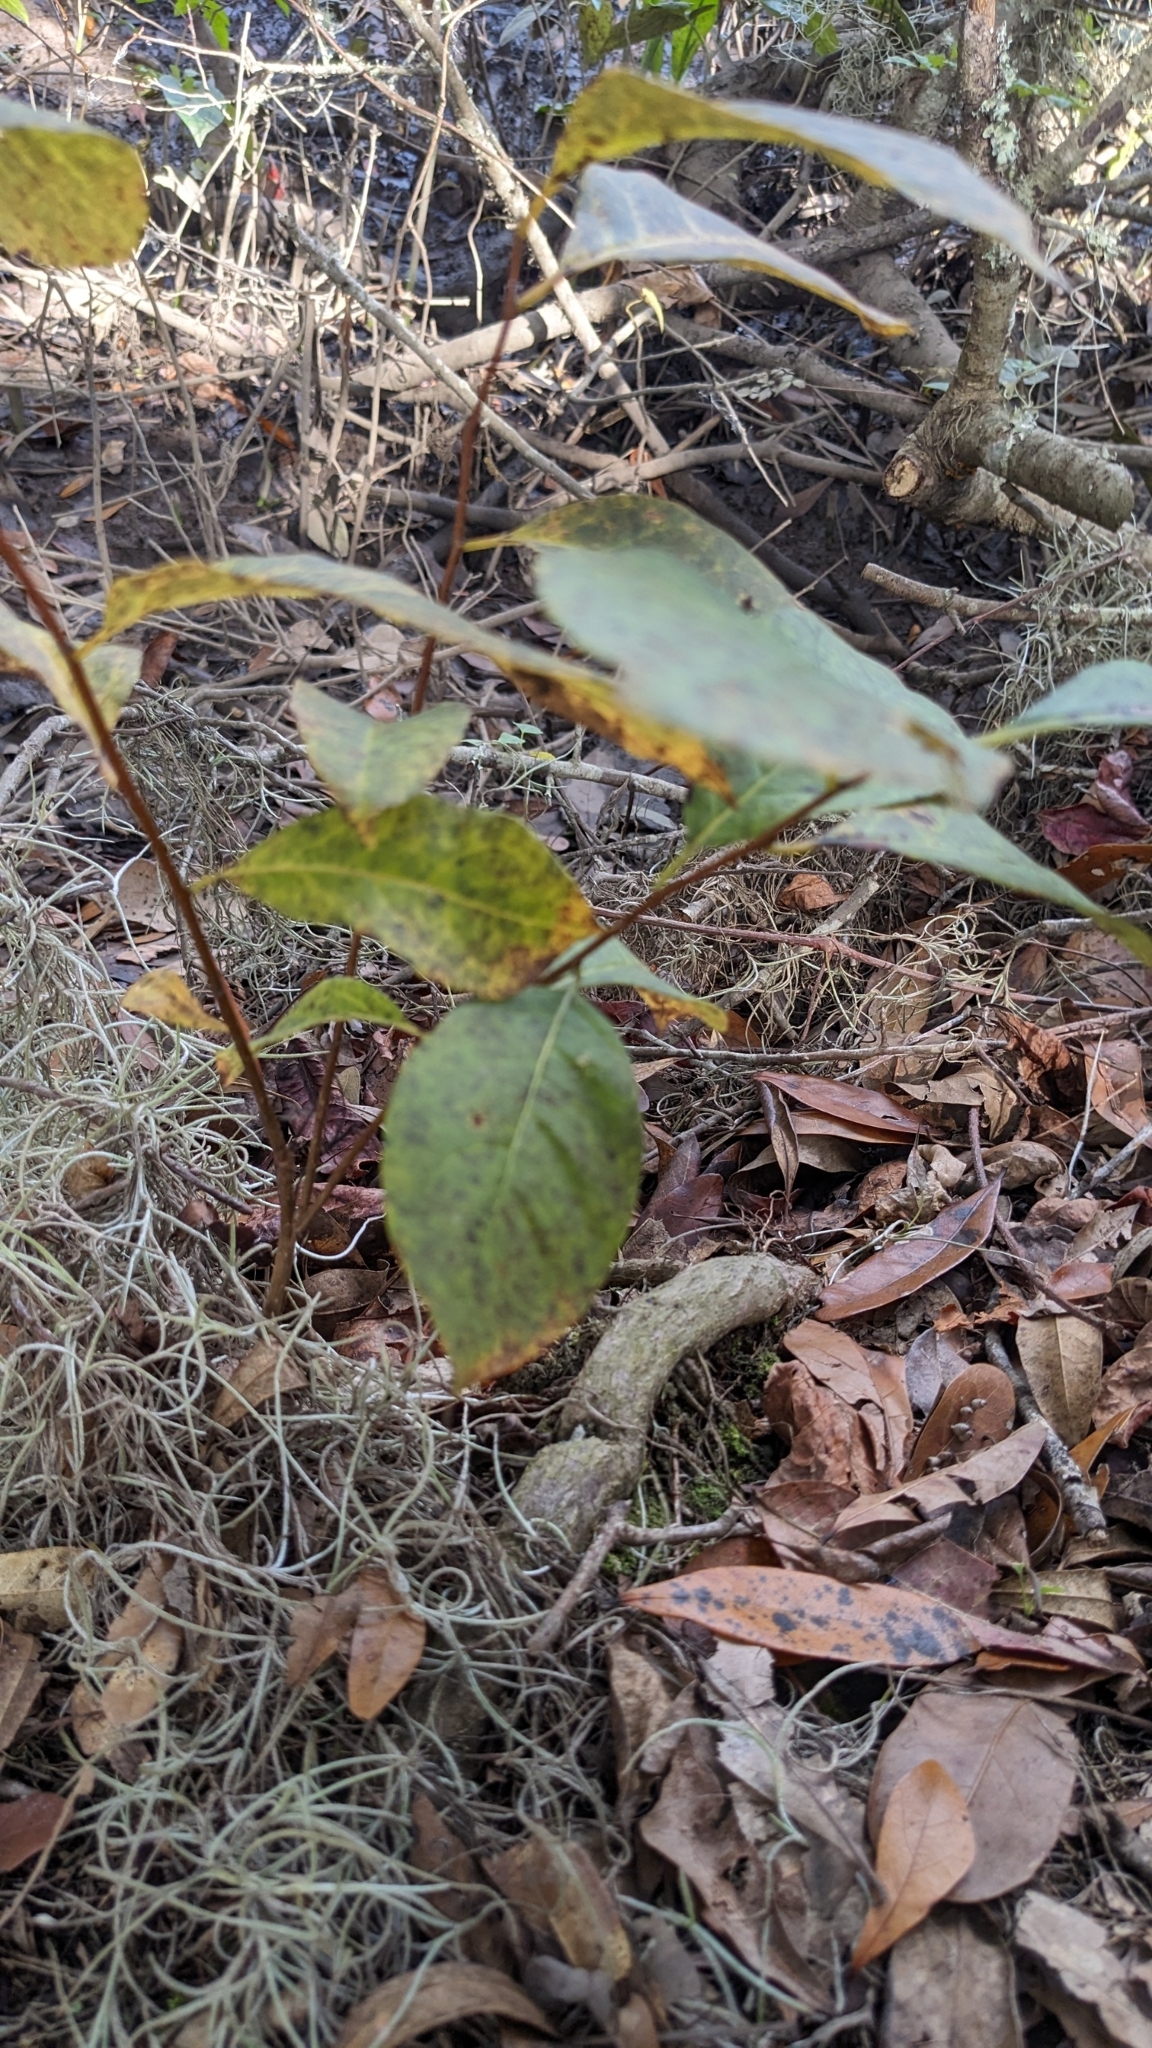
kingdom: Plantae
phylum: Tracheophyta
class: Magnoliopsida
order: Ericales
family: Ebenaceae
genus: Diospyros
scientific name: Diospyros virginiana
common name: Persimmon
